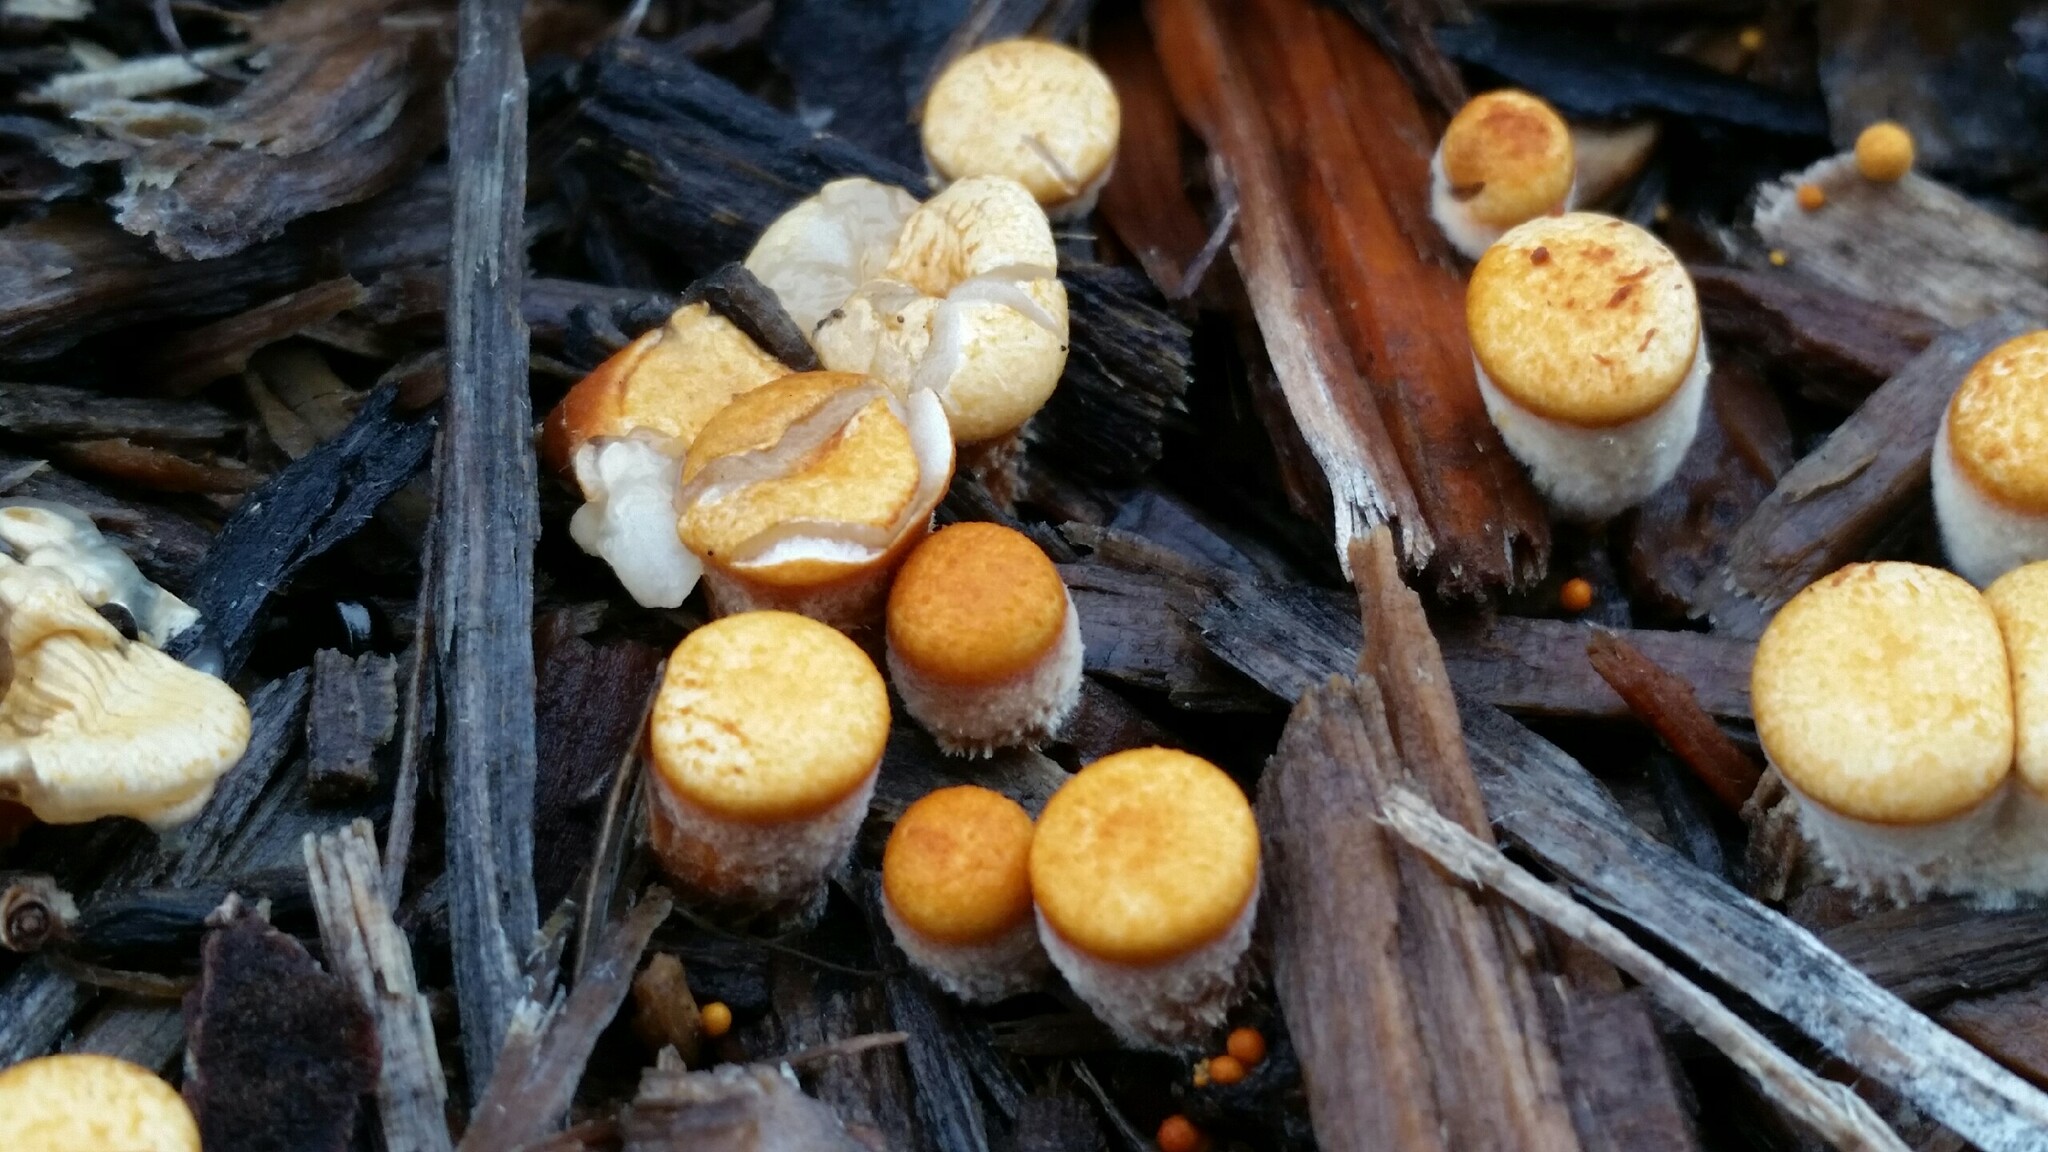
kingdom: Fungi
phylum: Basidiomycota
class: Agaricomycetes
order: Agaricales
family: Nidulariaceae
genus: Crucibulum
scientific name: Crucibulum laeve
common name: Common bird's nest
